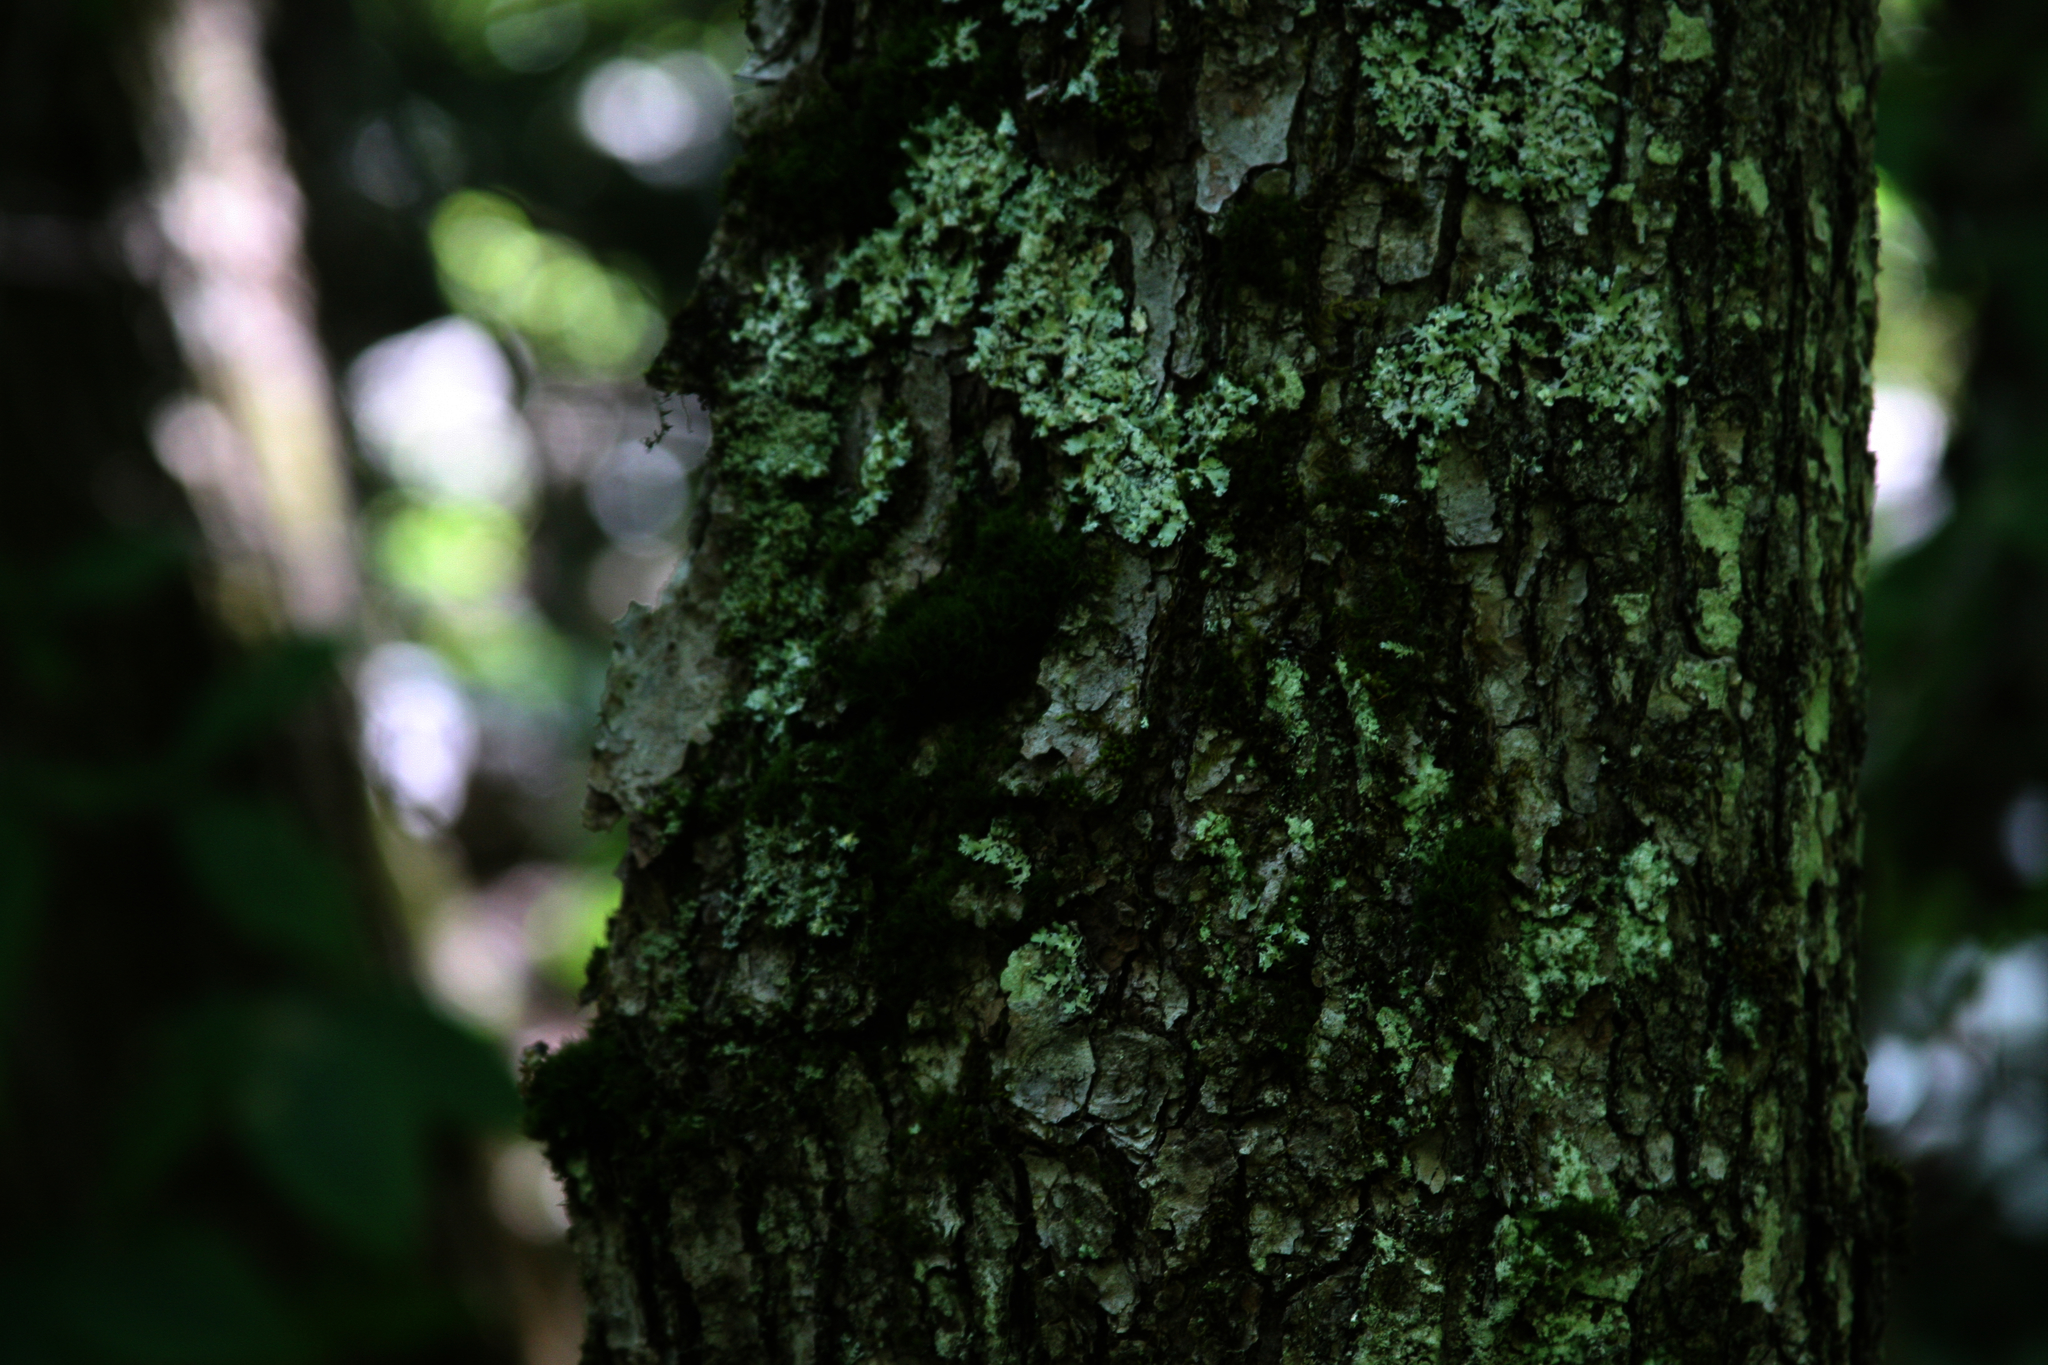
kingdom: Plantae
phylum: Bryophyta
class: Bryopsida
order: Orthotrichales
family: Orthotrichaceae
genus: Ulota
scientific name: Ulota crispa
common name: Crisped pincushion moss
